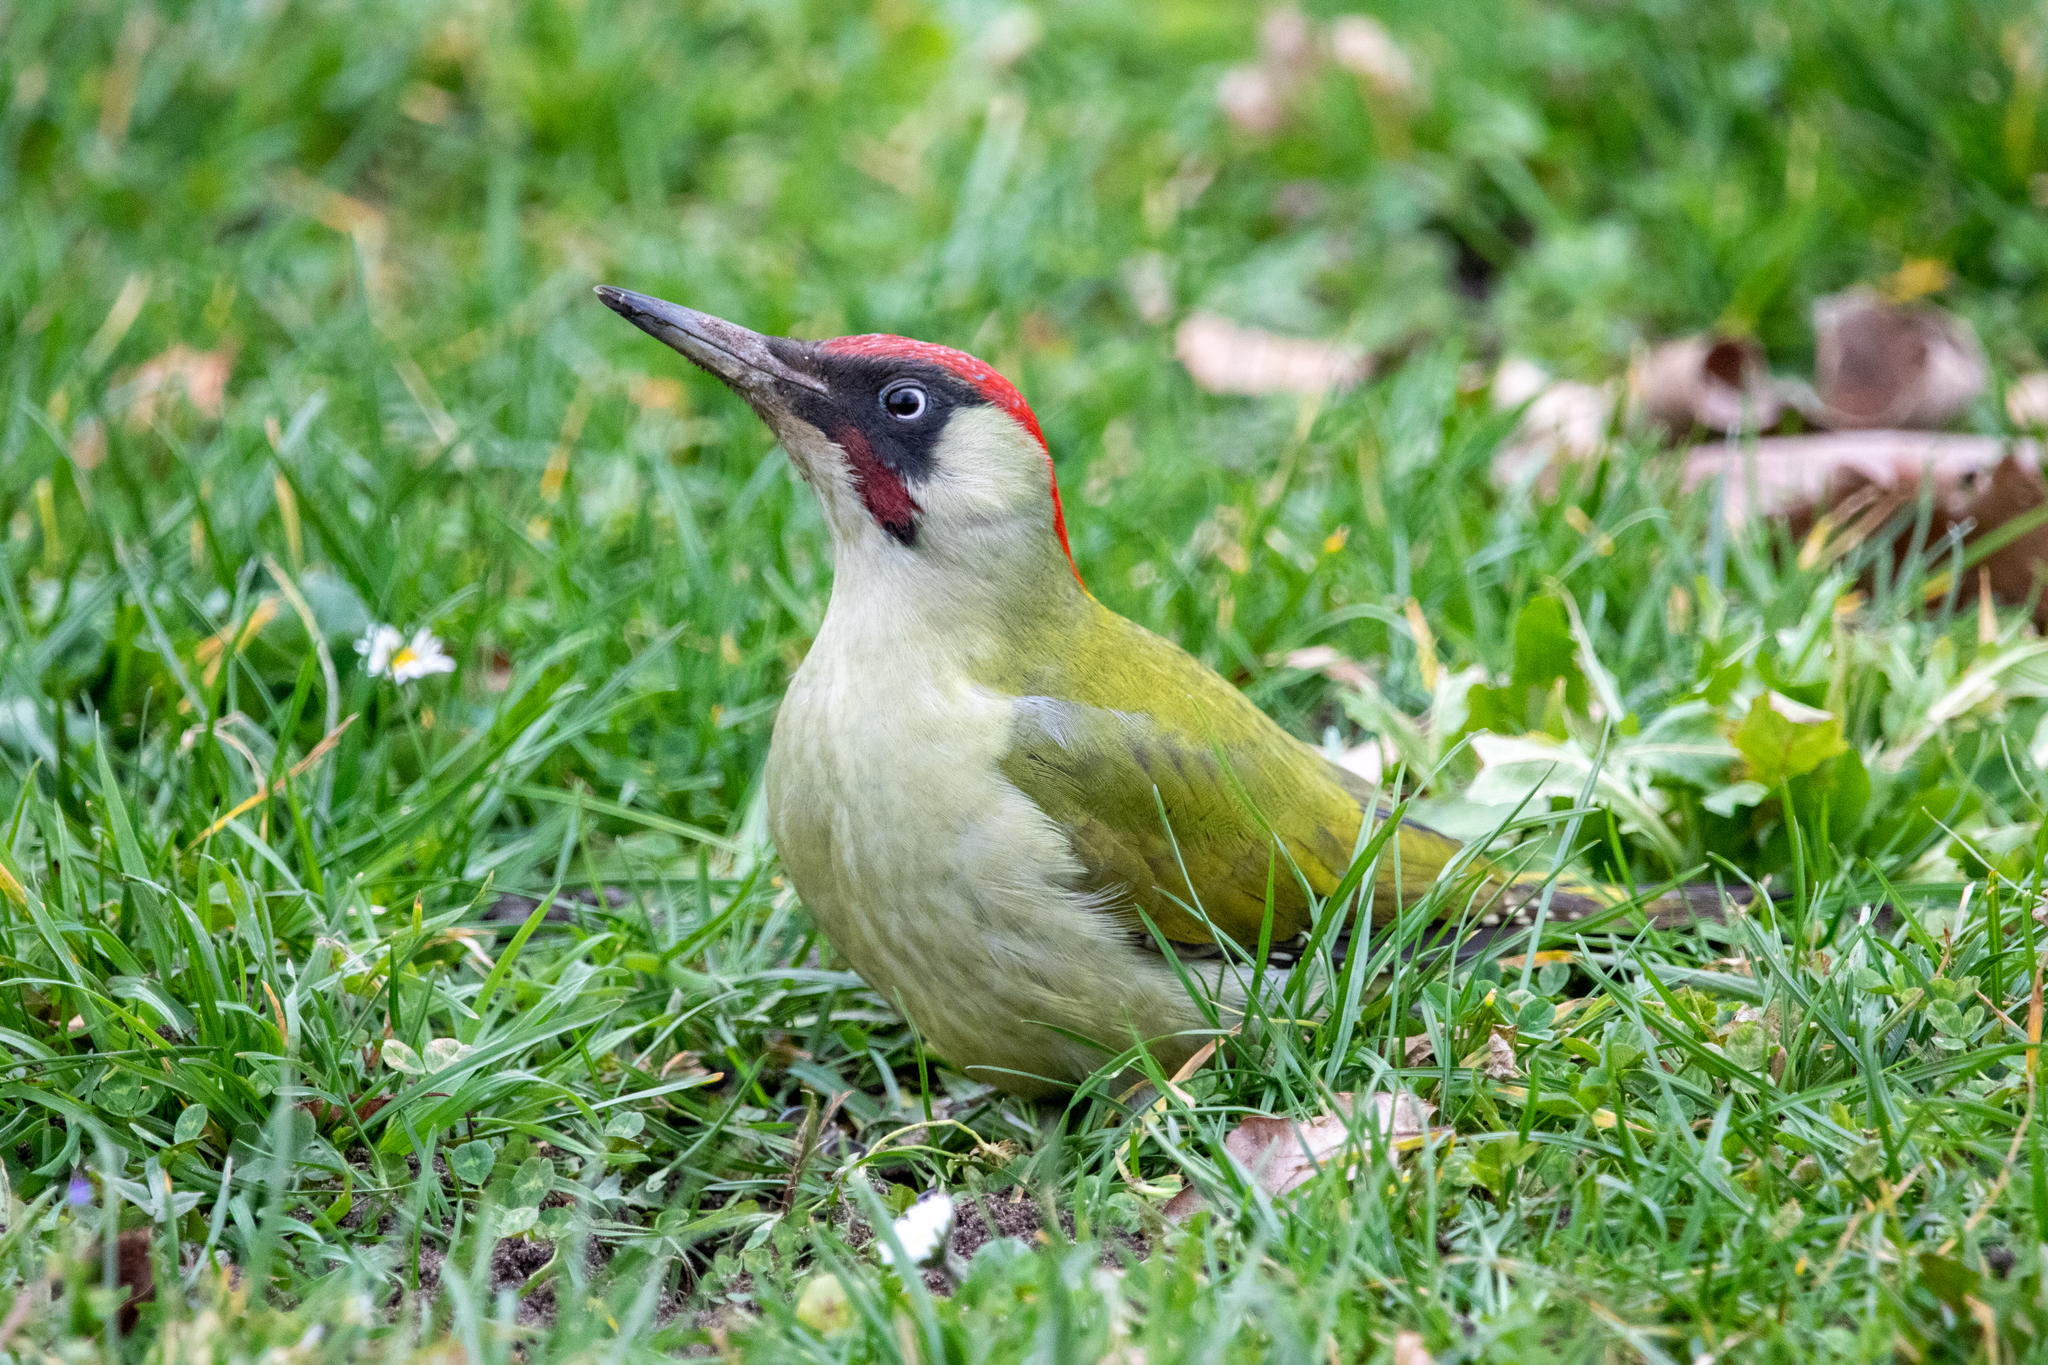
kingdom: Animalia
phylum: Chordata
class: Aves
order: Piciformes
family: Picidae
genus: Picus
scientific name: Picus viridis
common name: European green woodpecker
